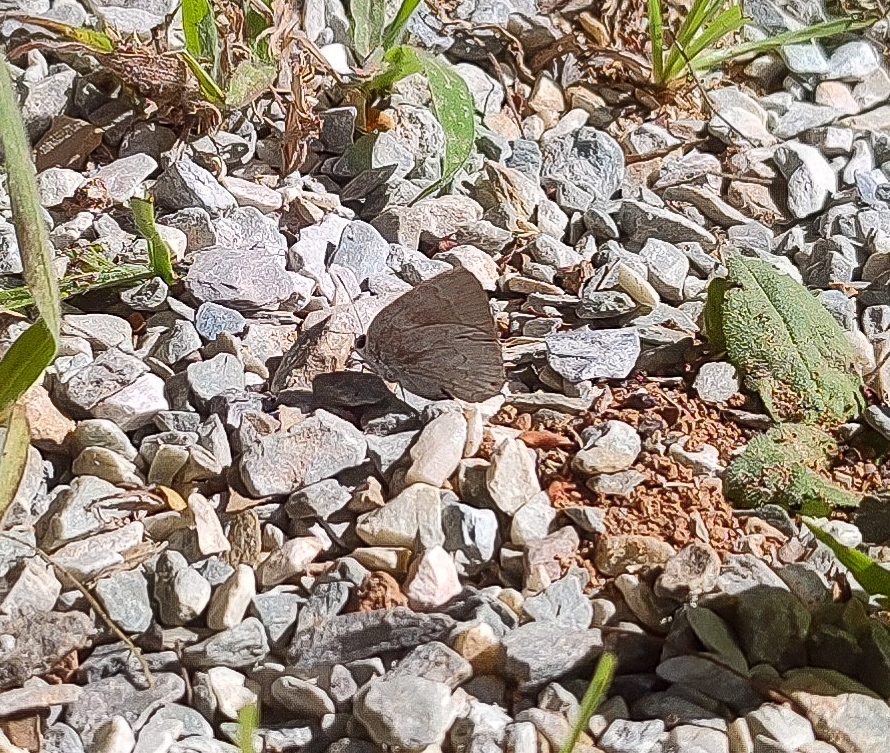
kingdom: Animalia
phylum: Arthropoda
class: Insecta
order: Lepidoptera
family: Lycaenidae
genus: Ostrinotes
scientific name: Ostrinotes
